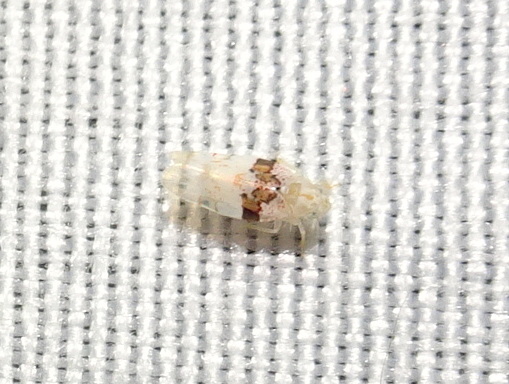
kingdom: Animalia
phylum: Arthropoda
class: Insecta
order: Hemiptera
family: Cicadellidae
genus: Hymetta
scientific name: Hymetta anthisma
